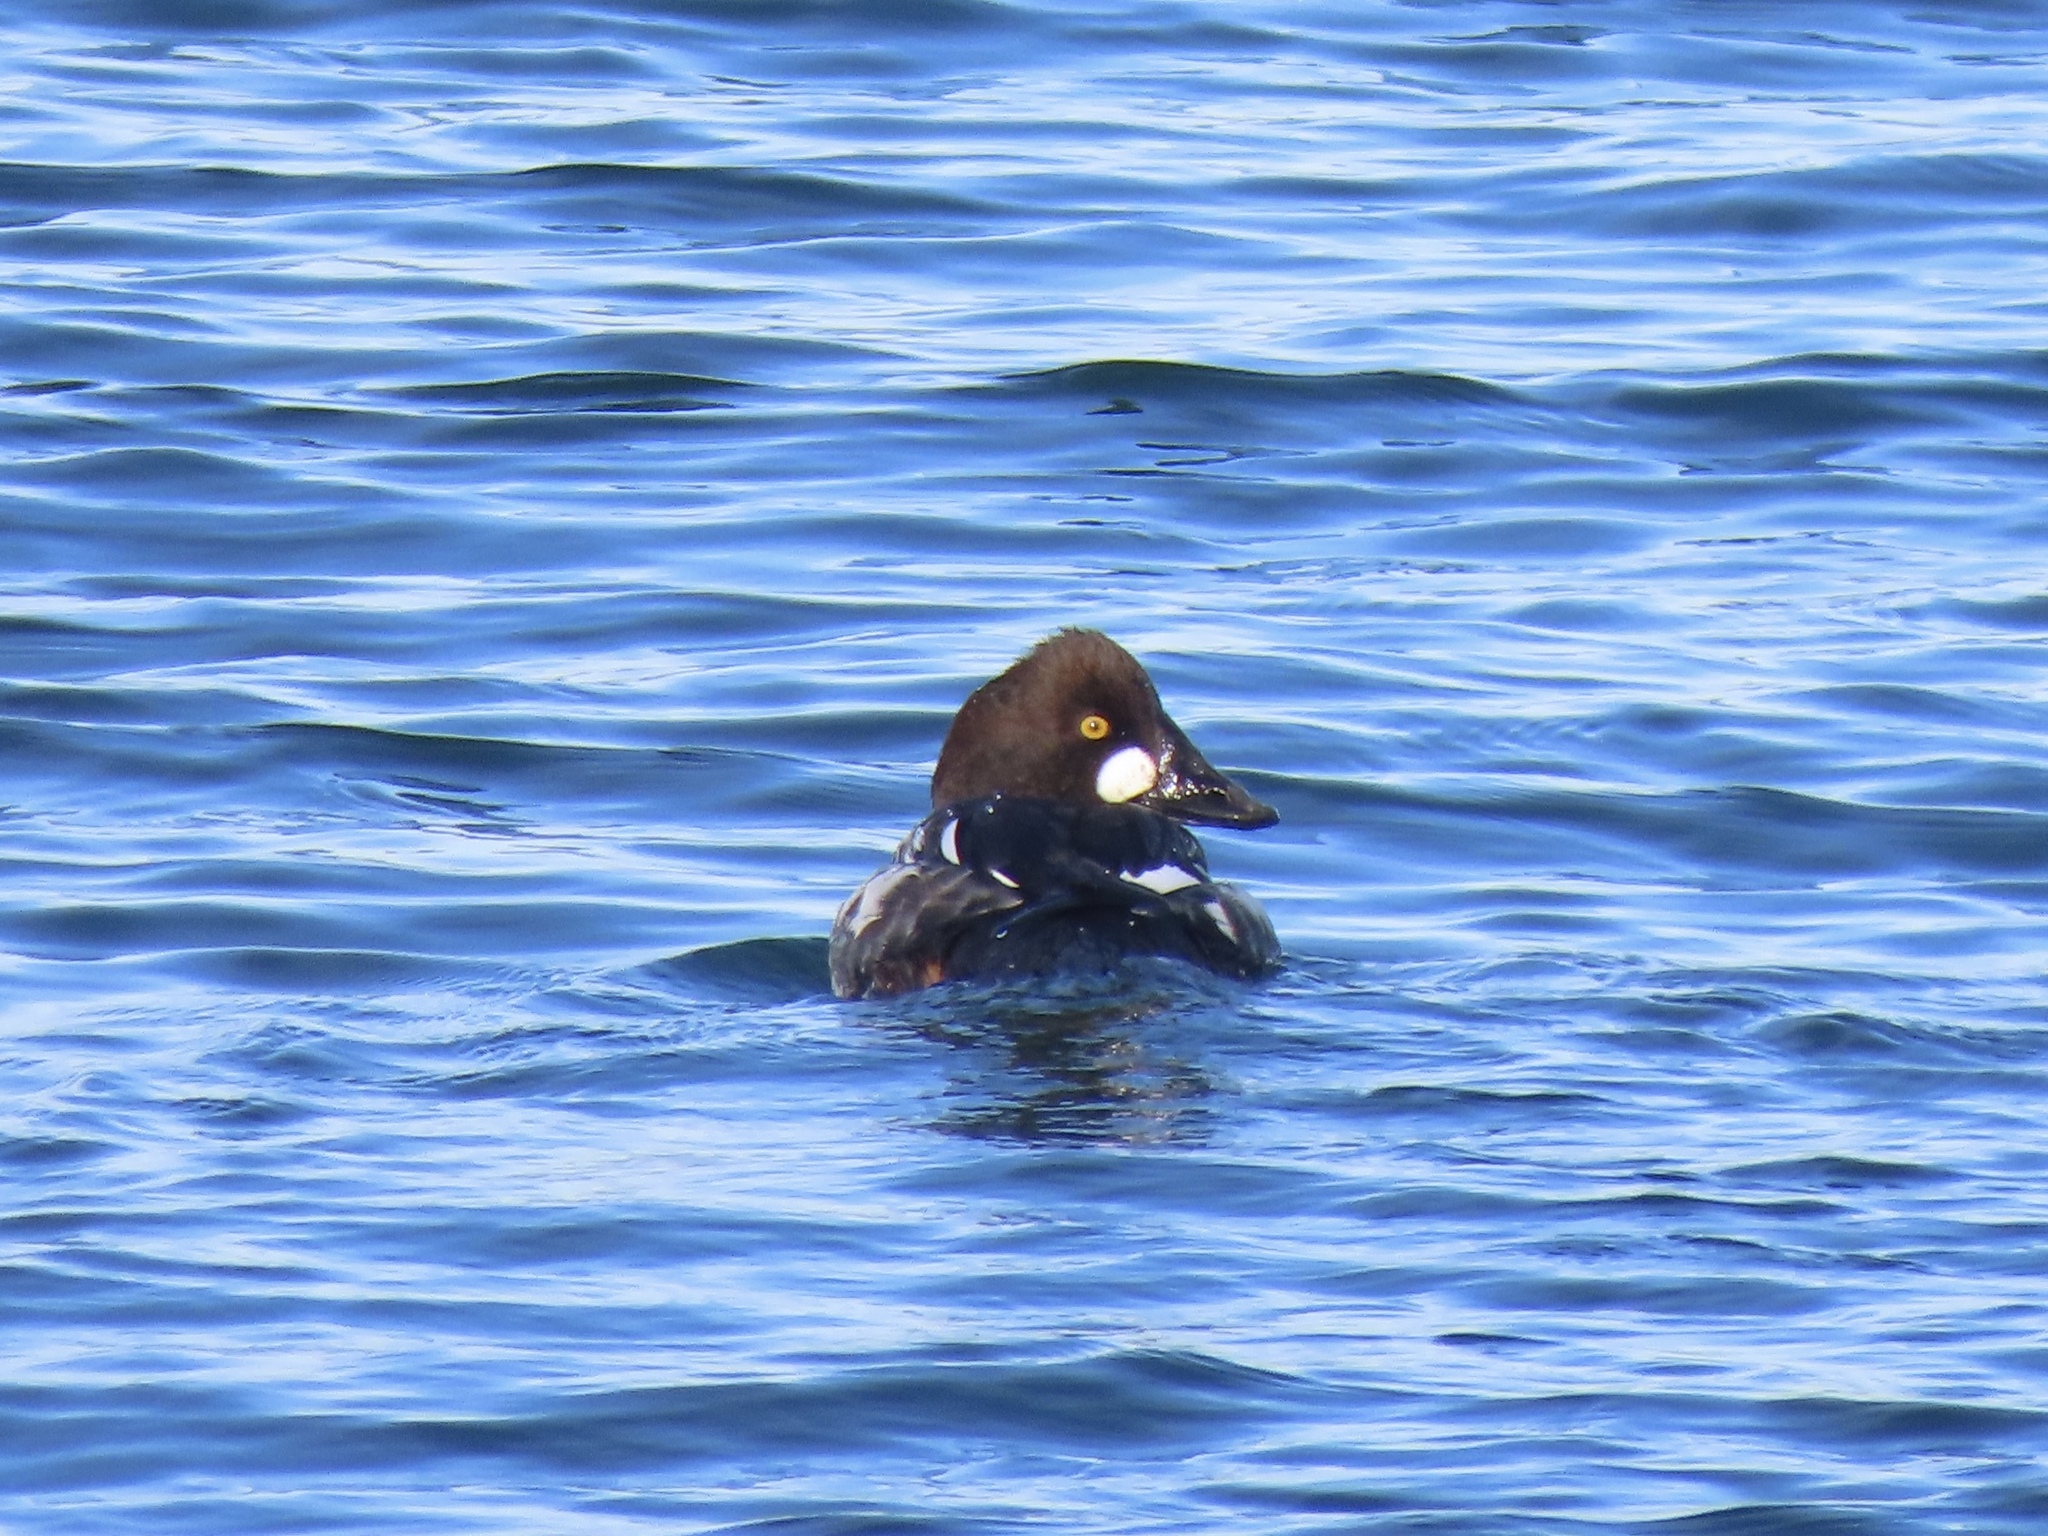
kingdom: Animalia
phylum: Chordata
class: Aves
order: Anseriformes
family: Anatidae
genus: Bucephala
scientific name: Bucephala clangula
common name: Common goldeneye
